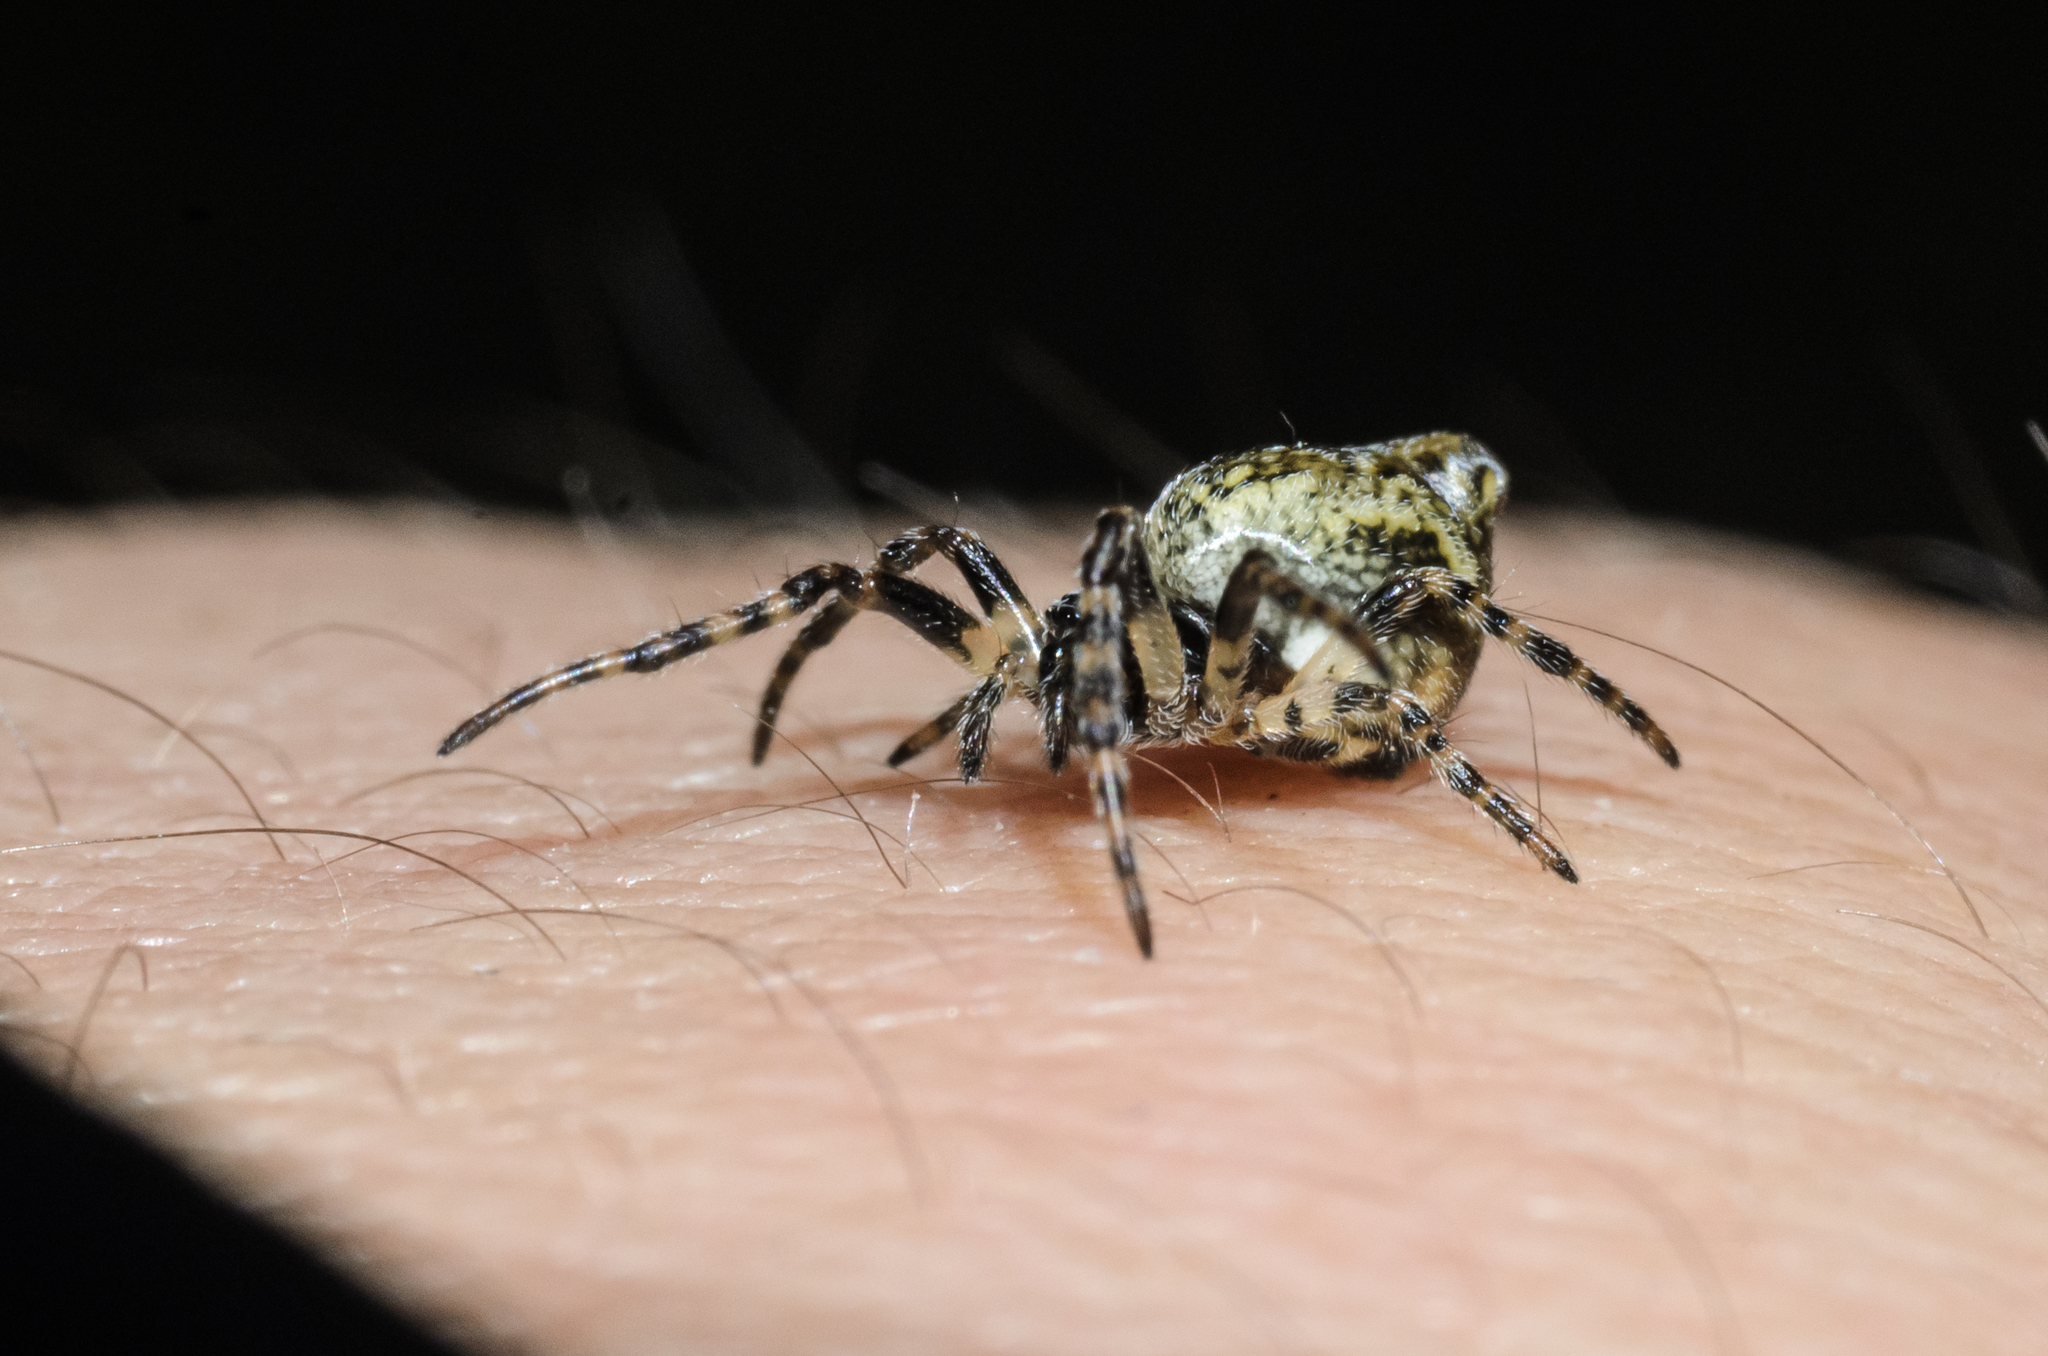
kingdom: Animalia
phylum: Arthropoda
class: Arachnida
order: Araneae
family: Araneidae
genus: Cyclosa
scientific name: Cyclosa conica
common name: Conical trashline orbweaver
